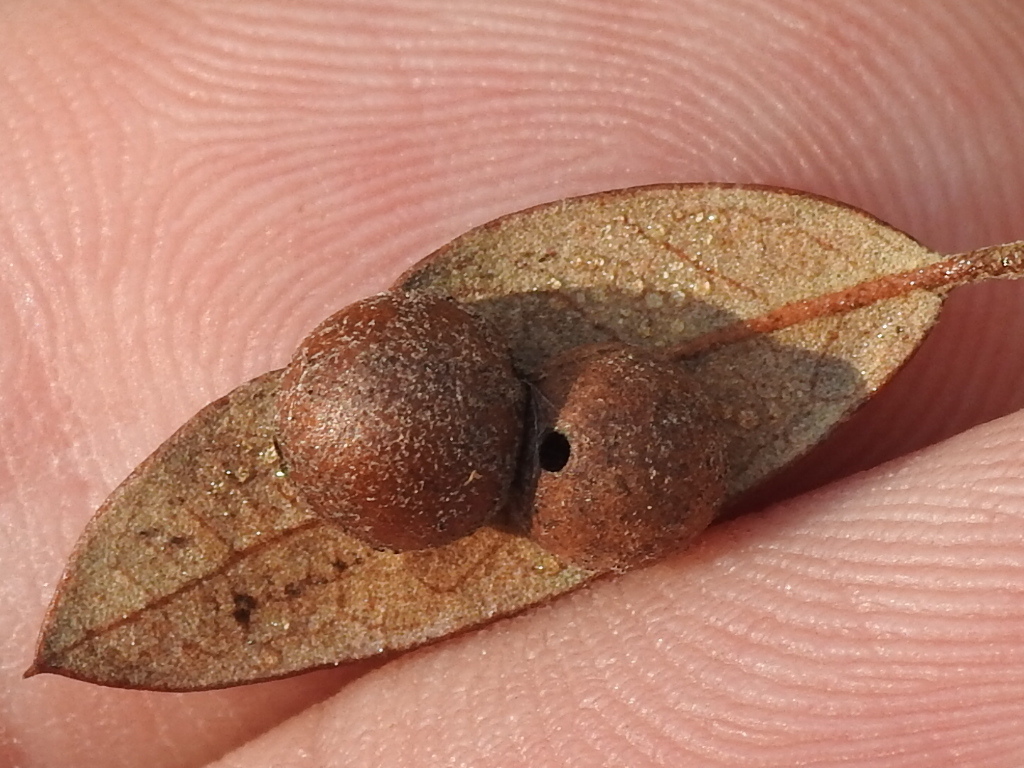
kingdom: Animalia
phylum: Arthropoda
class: Insecta
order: Hymenoptera
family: Cynipidae
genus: Belonocnema
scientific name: Belonocnema kinseyi
